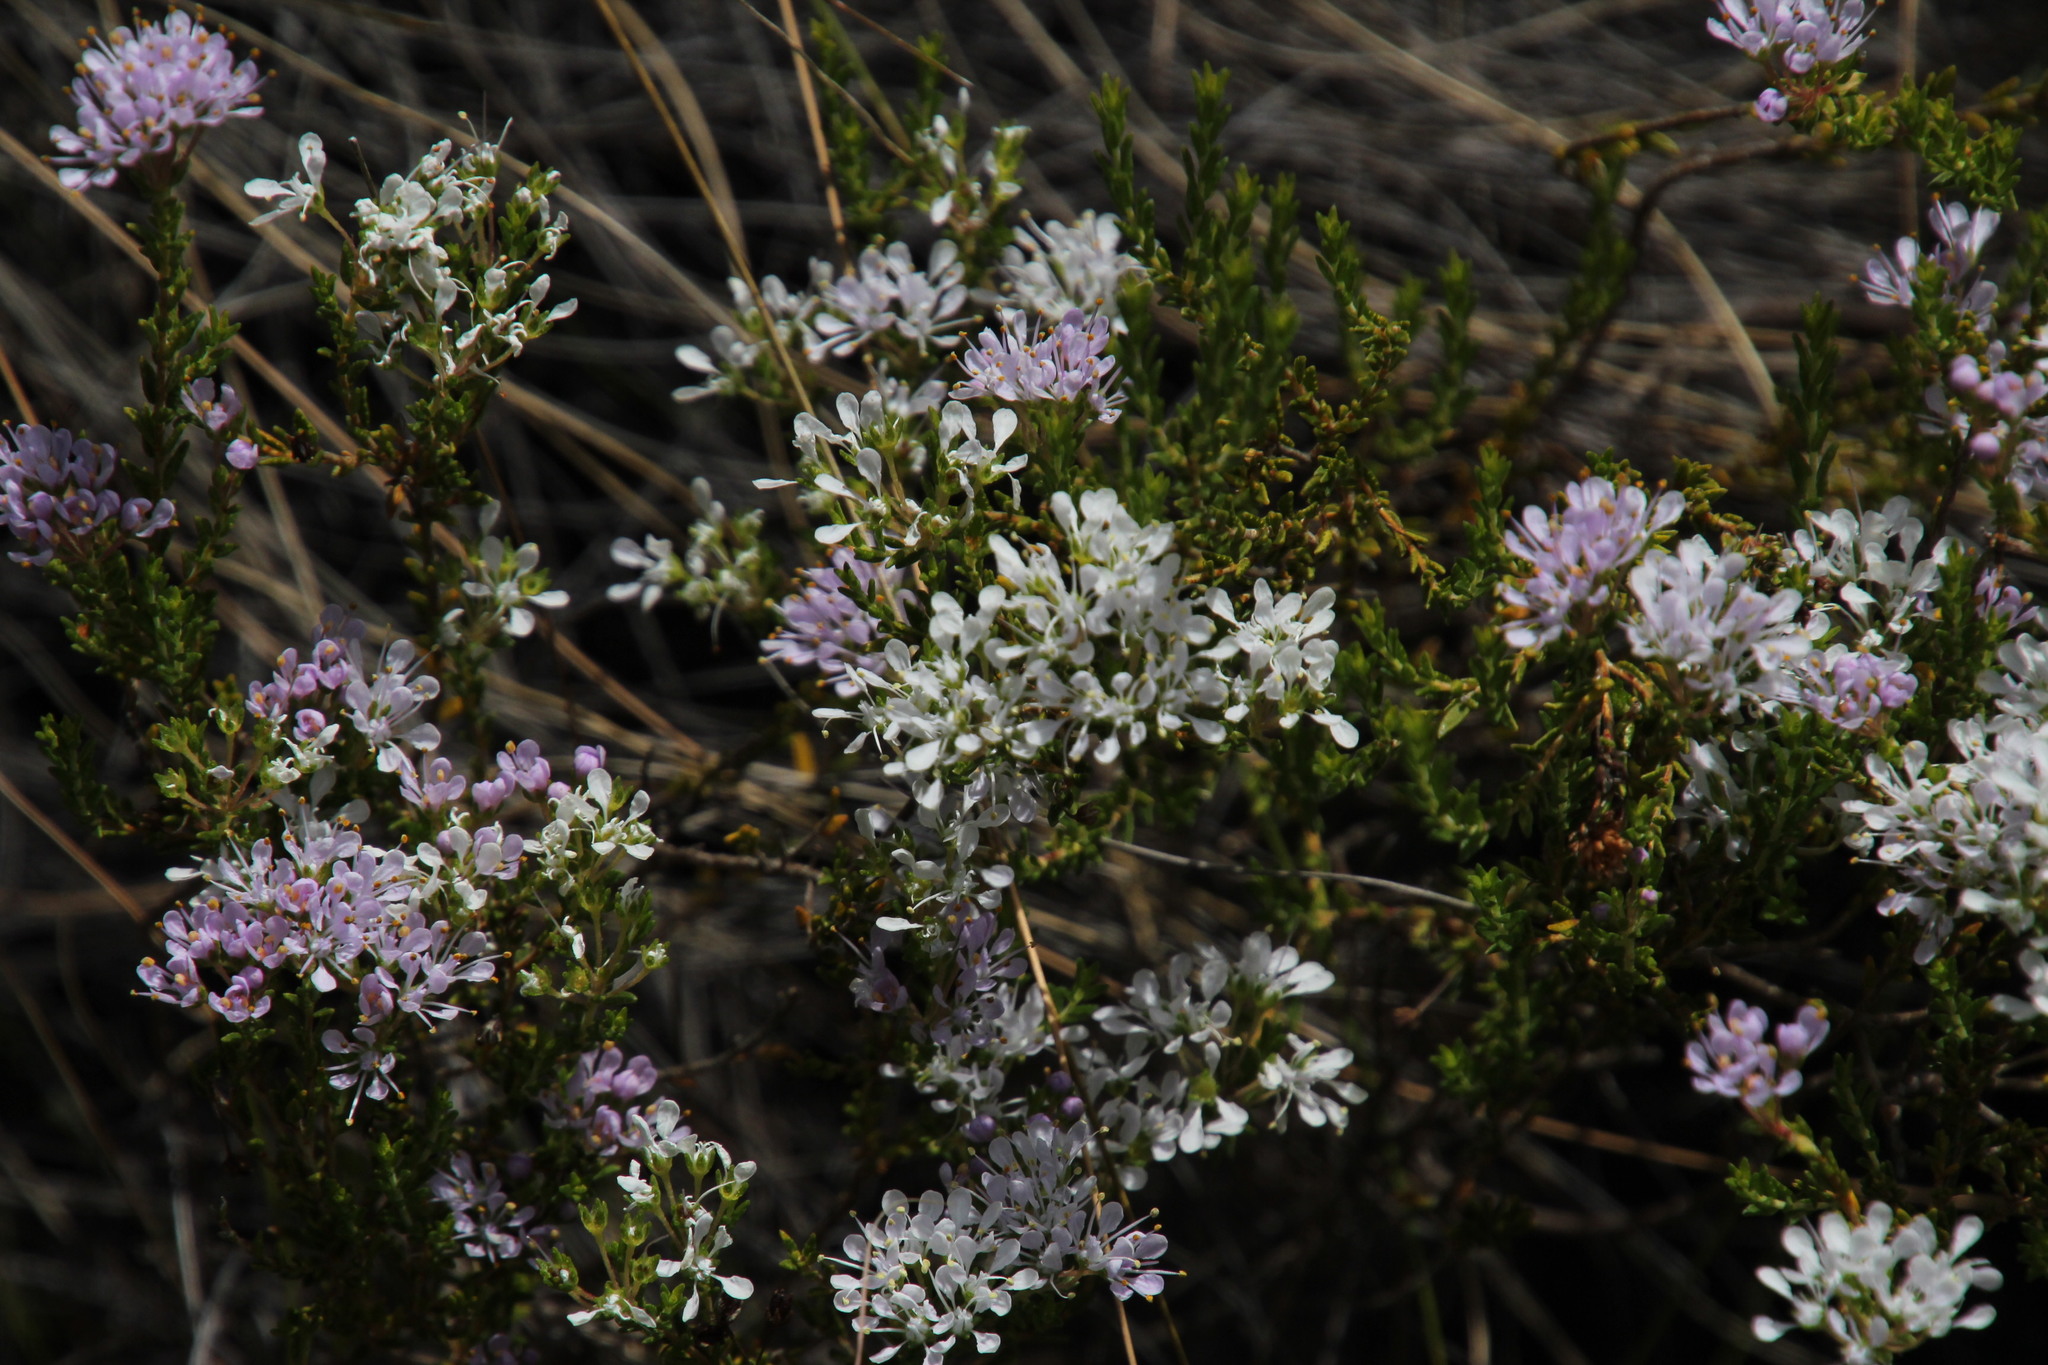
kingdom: Plantae
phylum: Tracheophyta
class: Magnoliopsida
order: Sapindales
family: Rutaceae
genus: Agathosma
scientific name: Agathosma bifida
